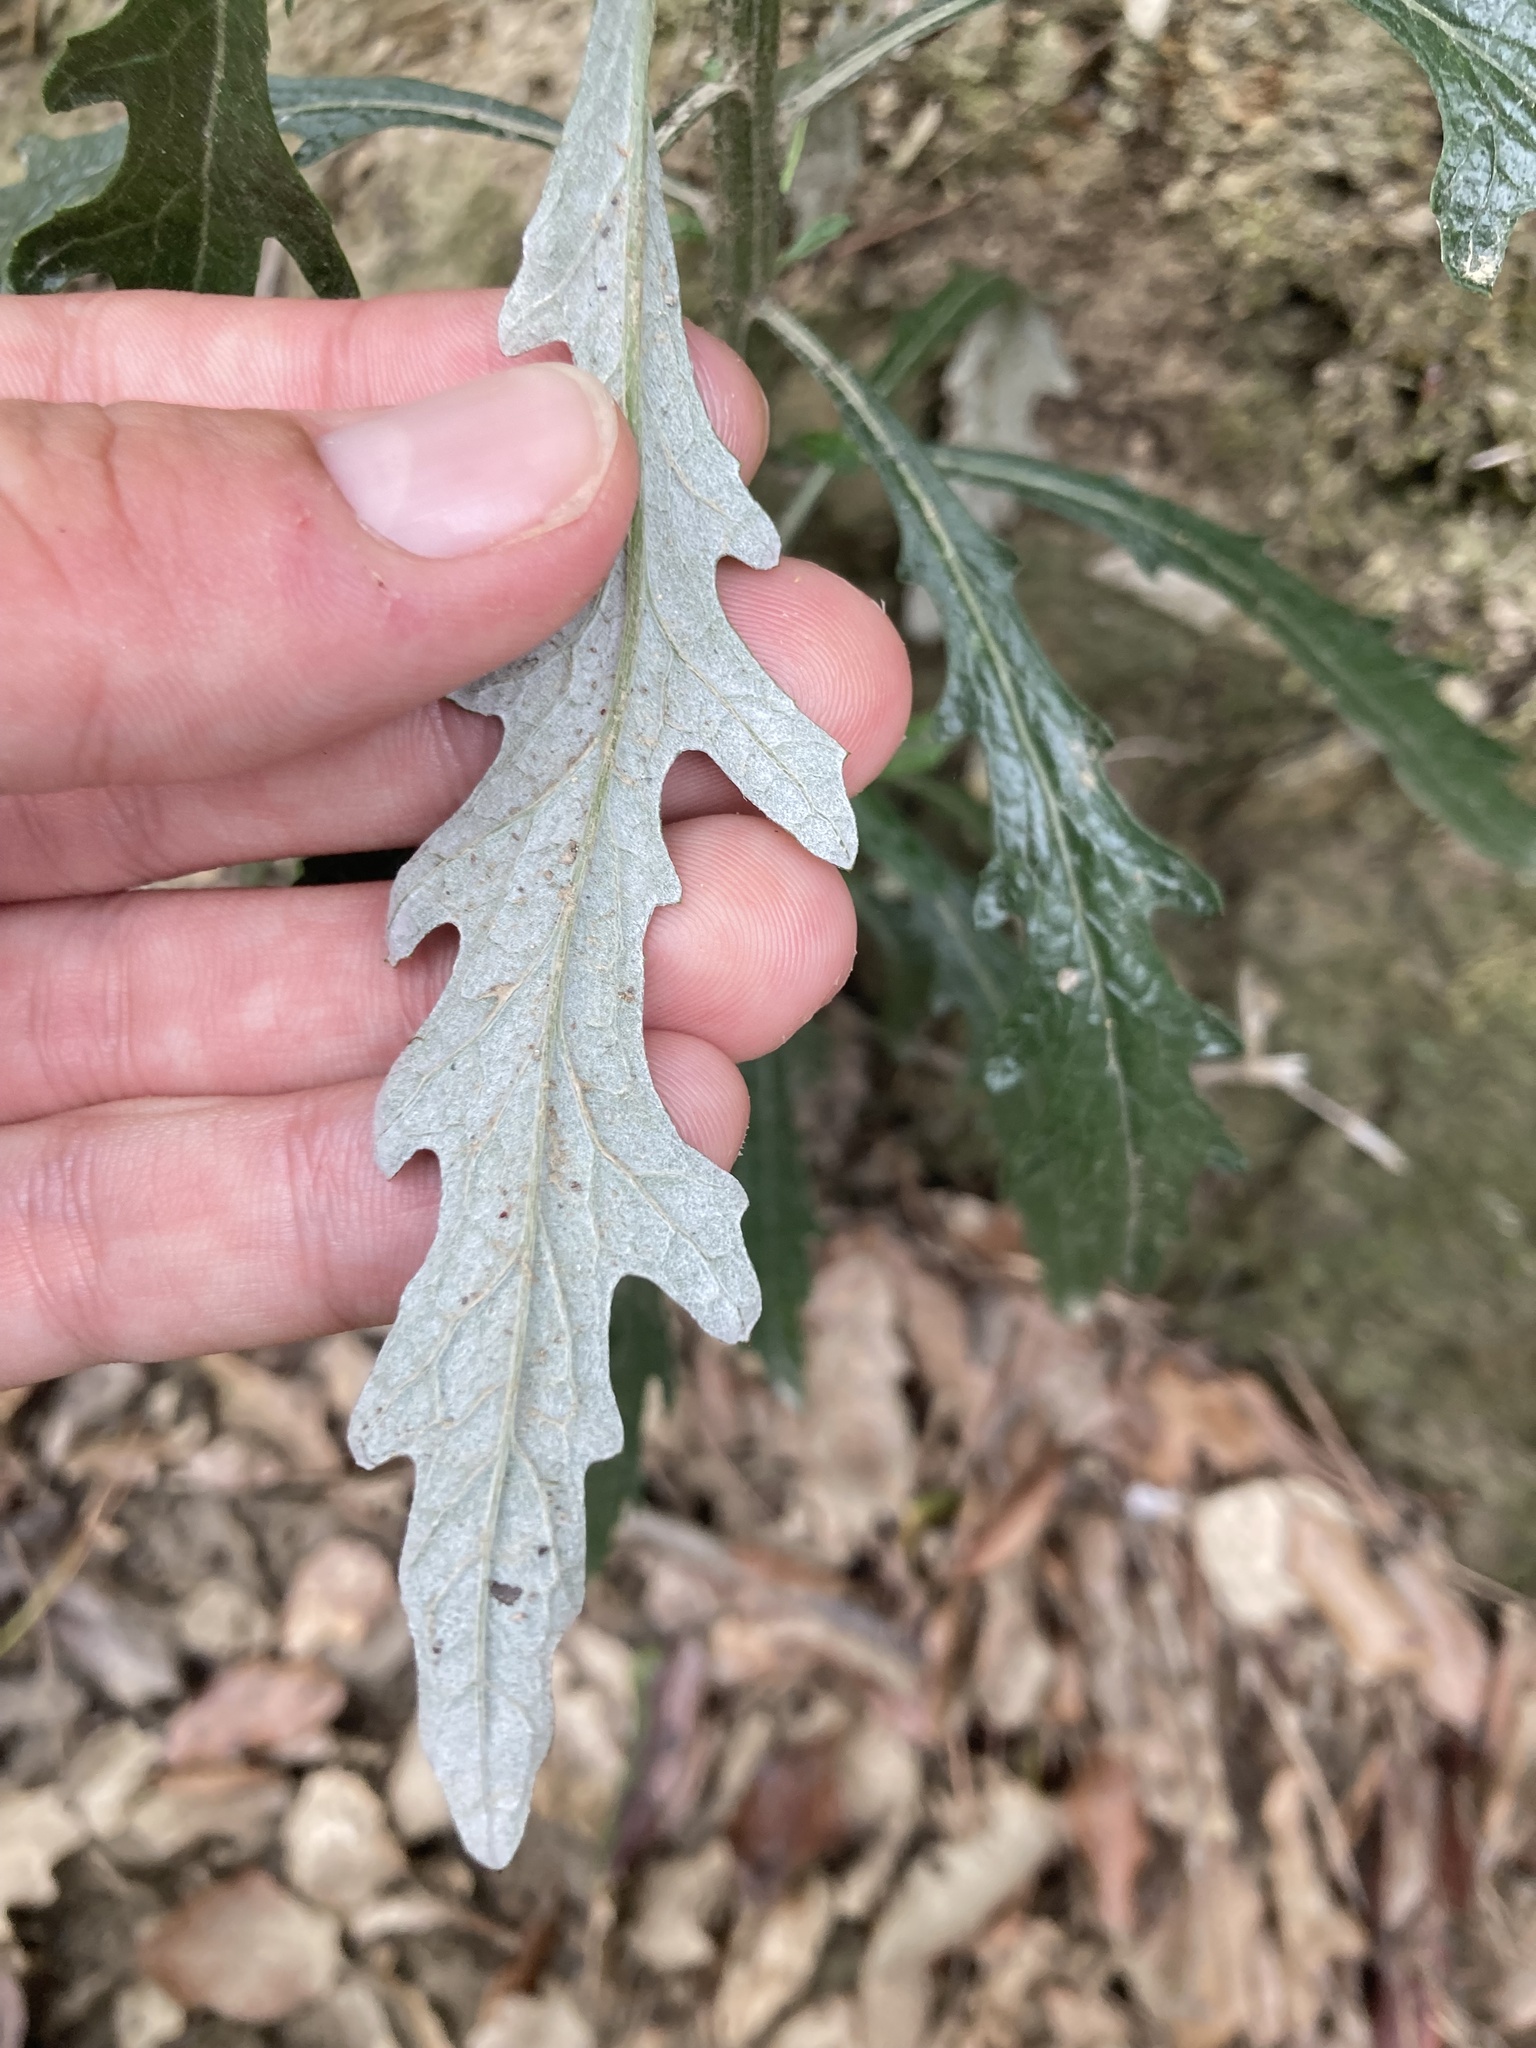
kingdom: Plantae
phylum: Tracheophyta
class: Magnoliopsida
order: Asterales
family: Asteraceae
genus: Senecio
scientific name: Senecio pterophorus
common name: Shoddy ragwort
